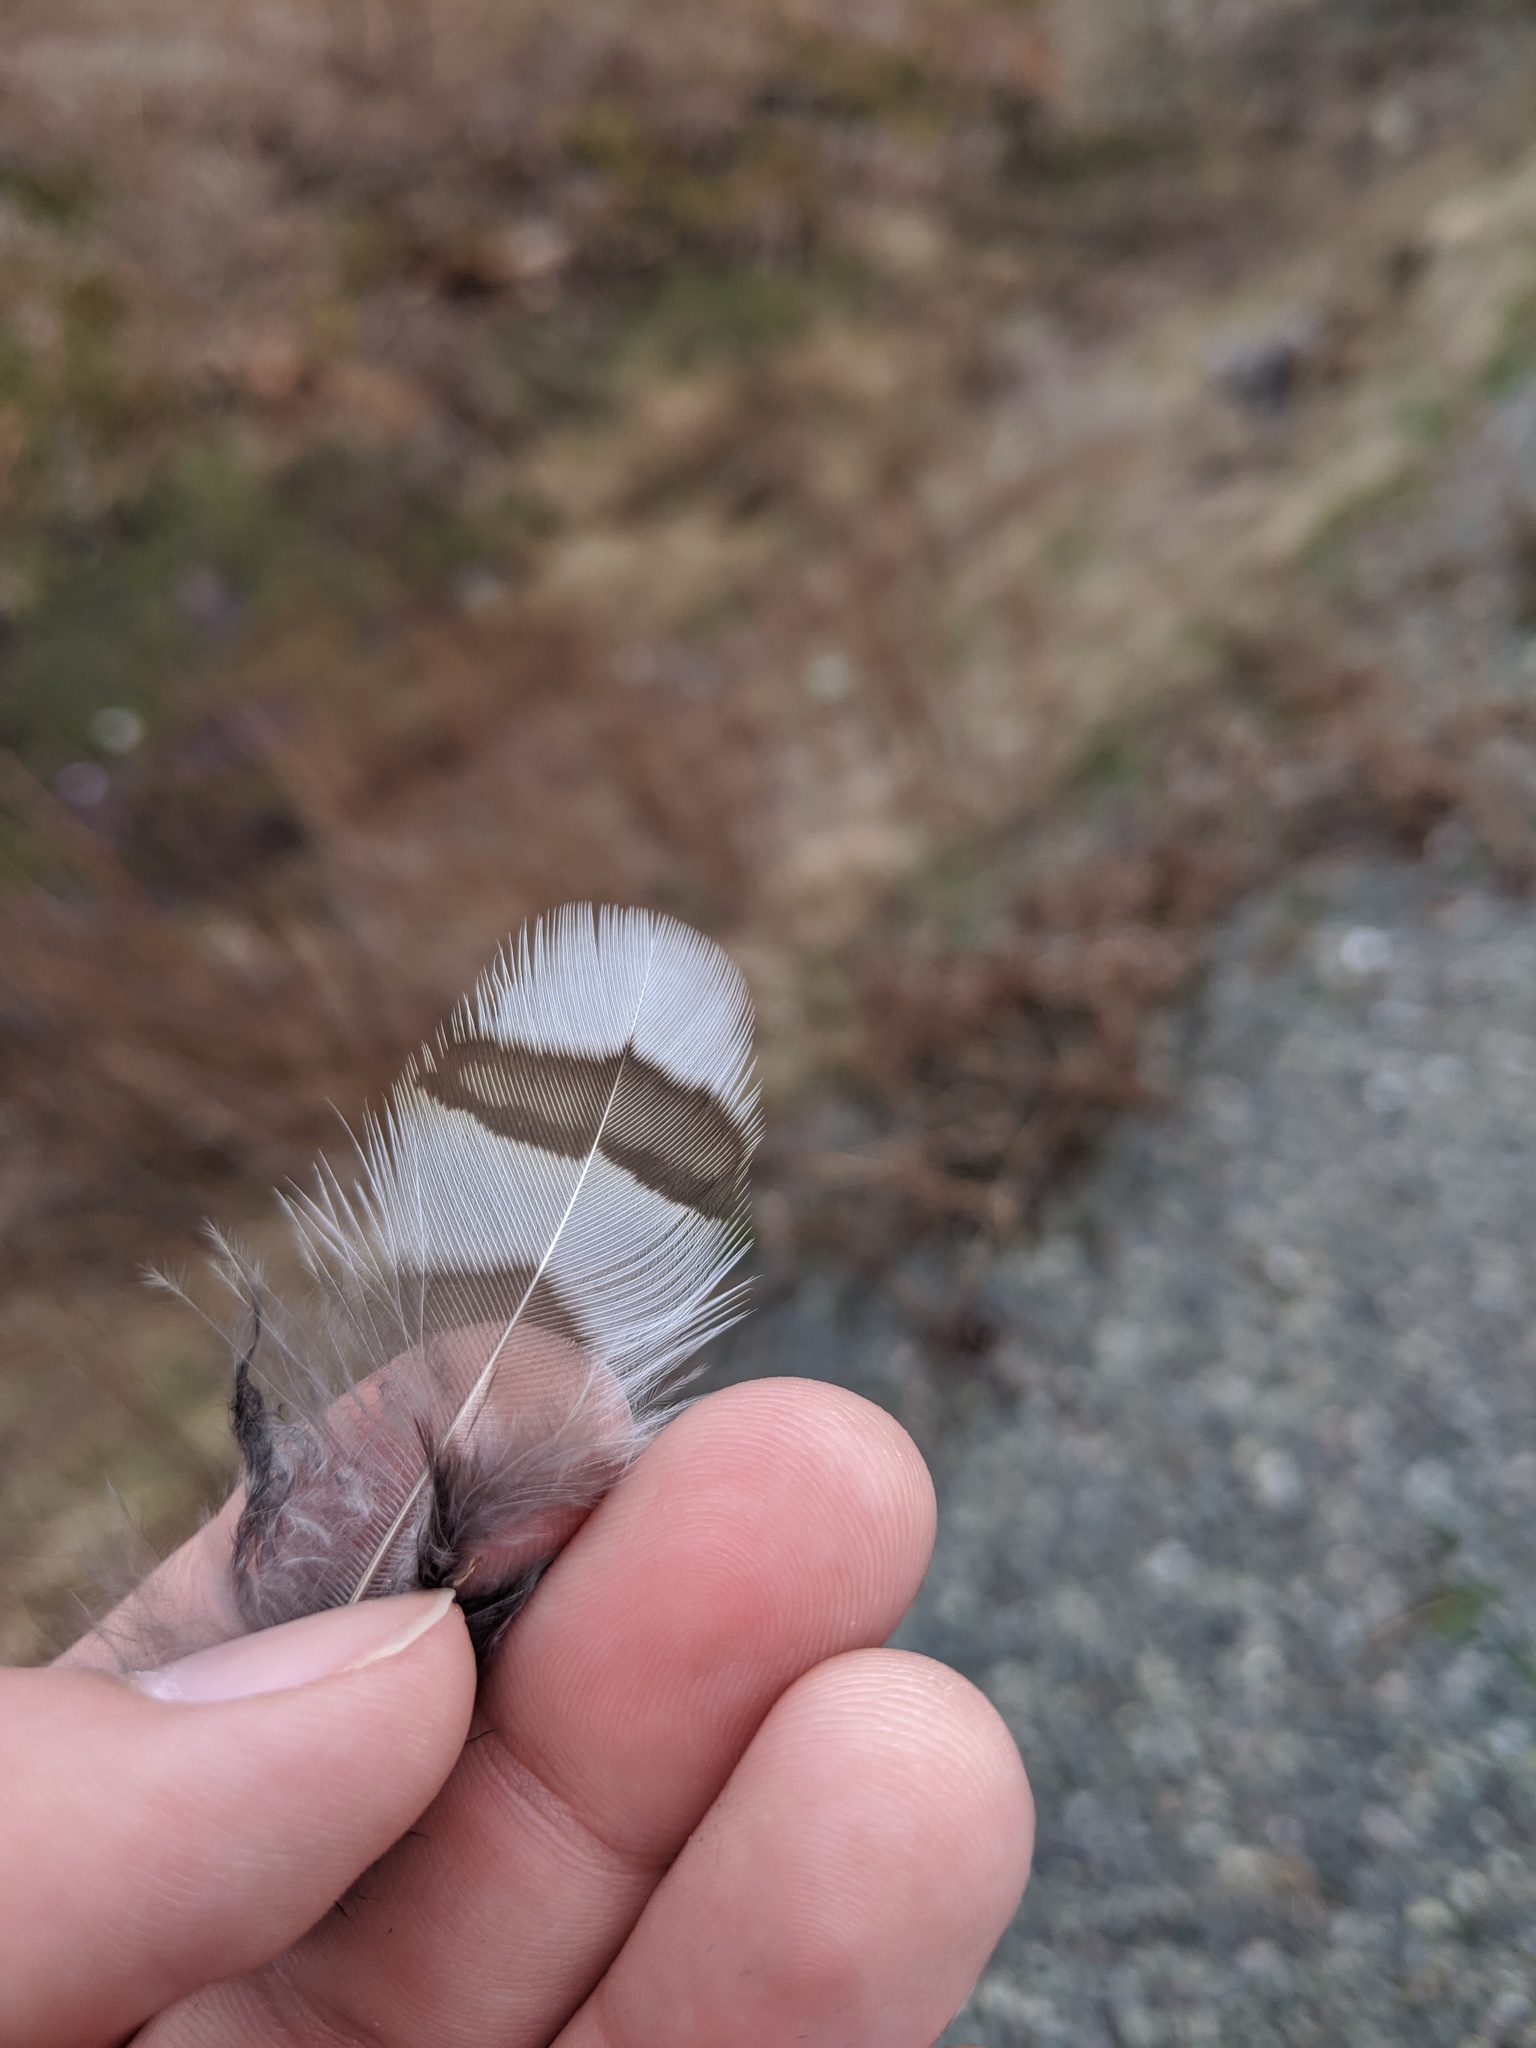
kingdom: Animalia
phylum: Chordata
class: Aves
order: Galliformes
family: Phasianidae
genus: Bonasa
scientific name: Bonasa umbellus
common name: Ruffed grouse
